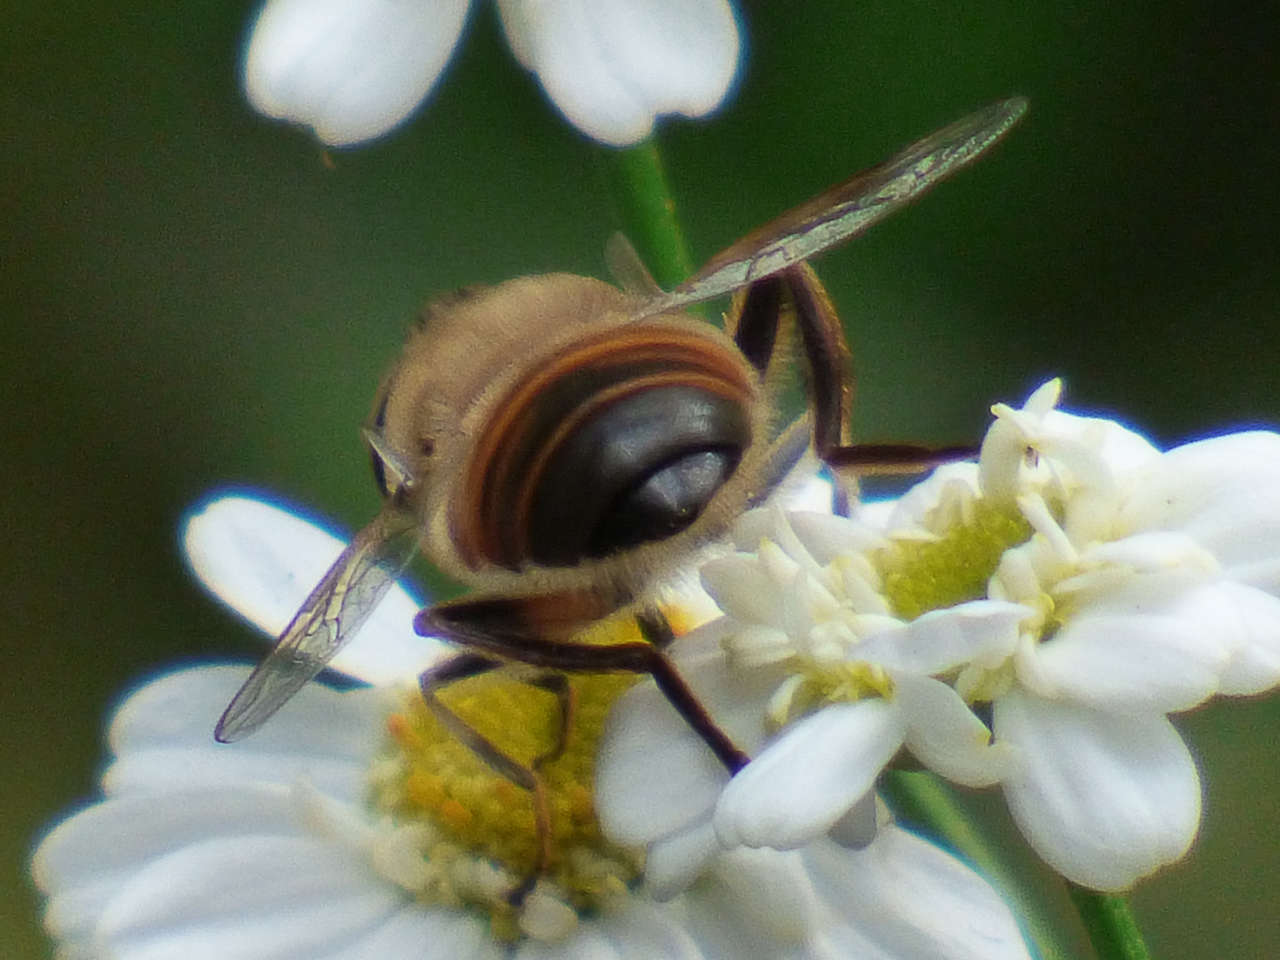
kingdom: Animalia
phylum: Arthropoda
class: Insecta
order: Diptera
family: Syrphidae
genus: Eristalis
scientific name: Eristalis tenax
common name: Drone fly
